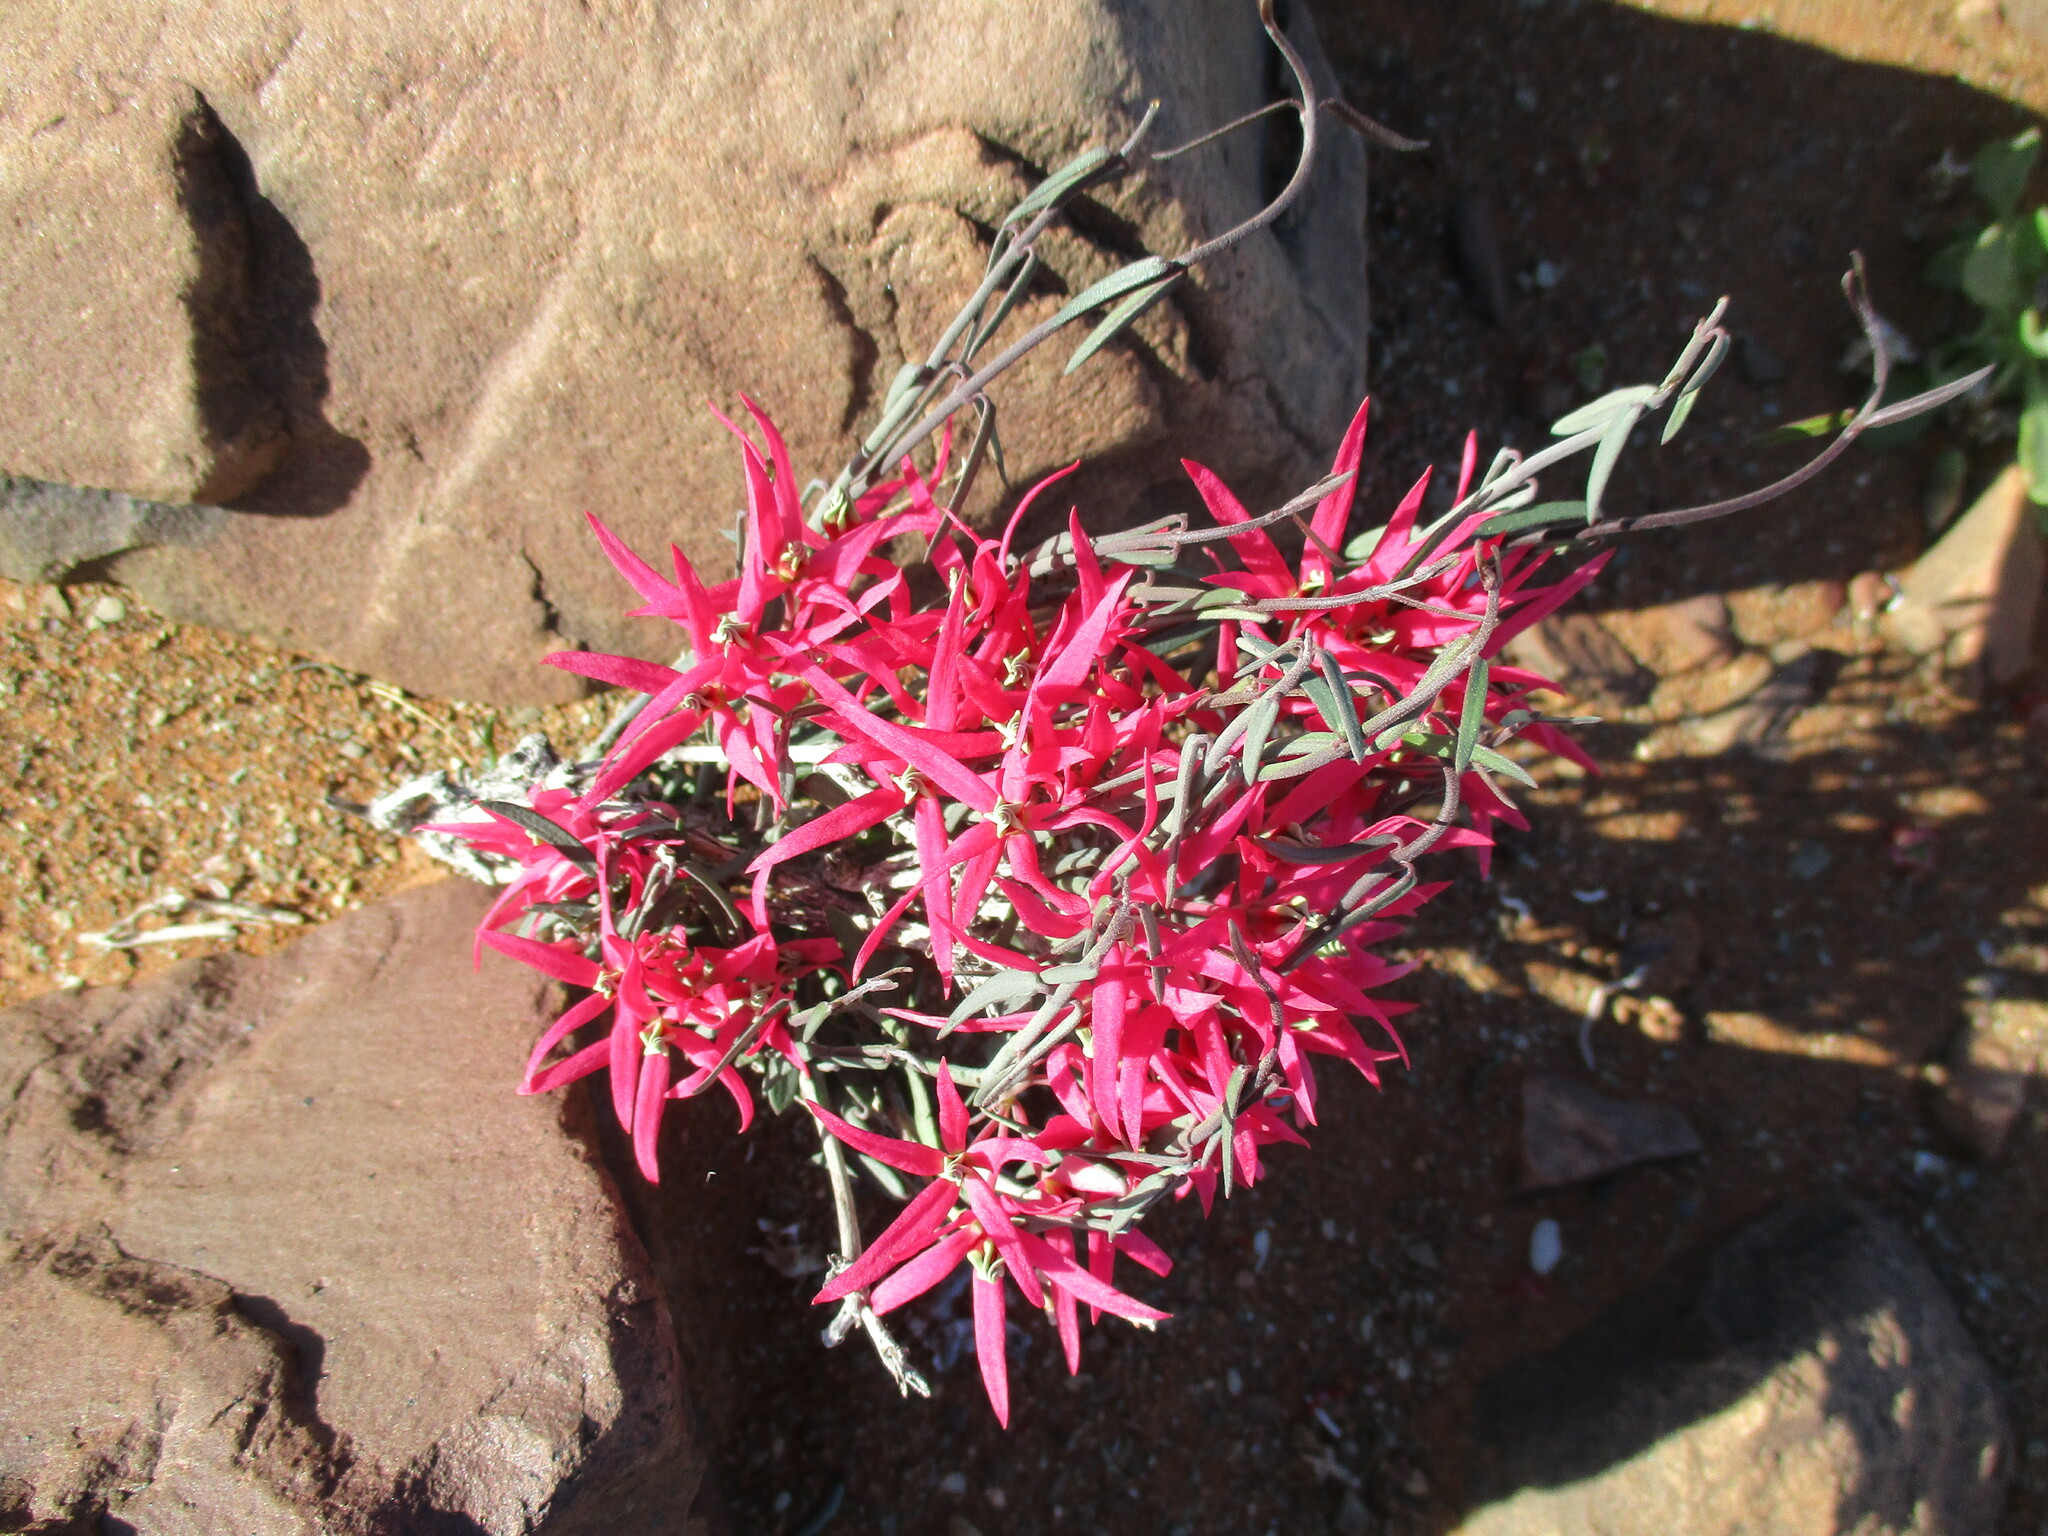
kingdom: Plantae
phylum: Tracheophyta
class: Magnoliopsida
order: Gentianales
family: Apocynaceae
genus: Microloma
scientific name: Microloma calycinum
